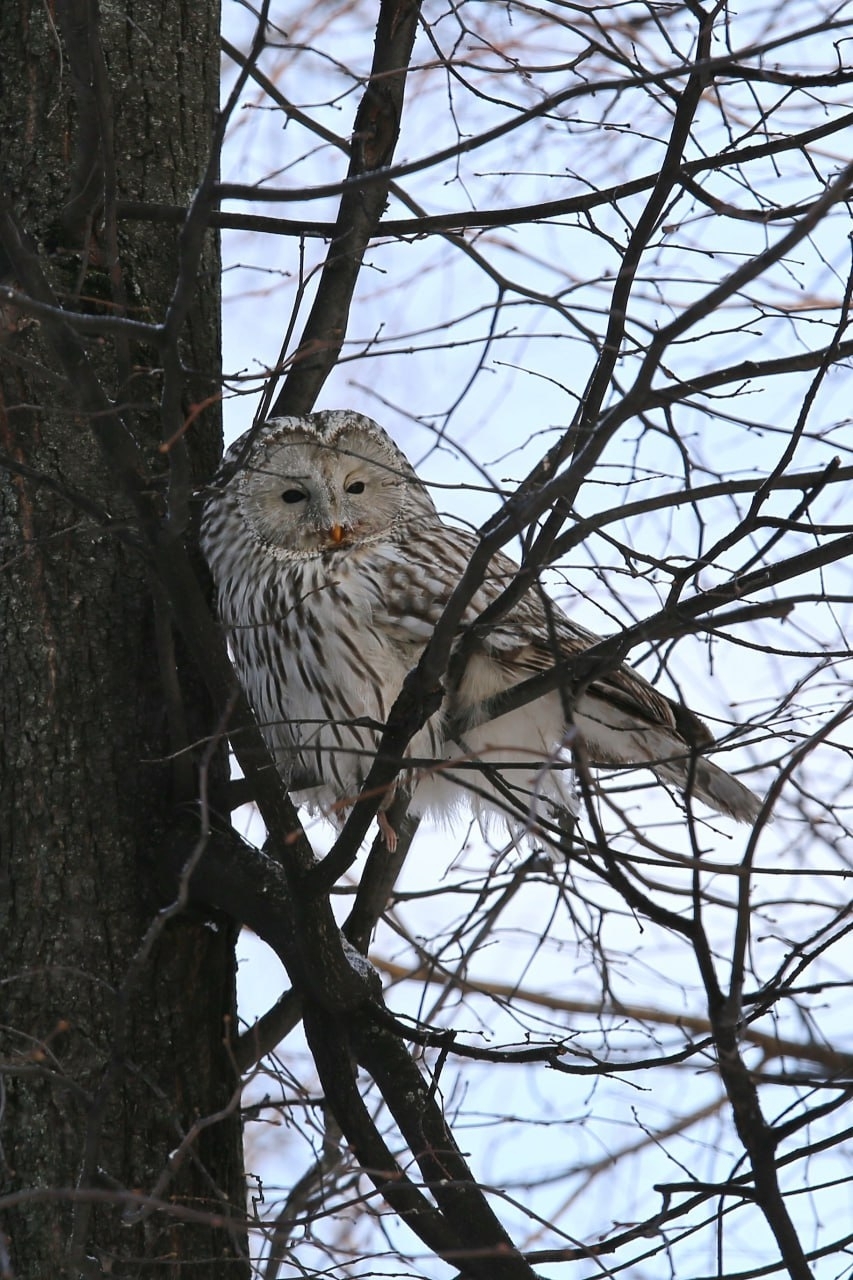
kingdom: Animalia
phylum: Chordata
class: Aves
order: Strigiformes
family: Strigidae
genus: Strix
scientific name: Strix uralensis
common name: Ural owl
